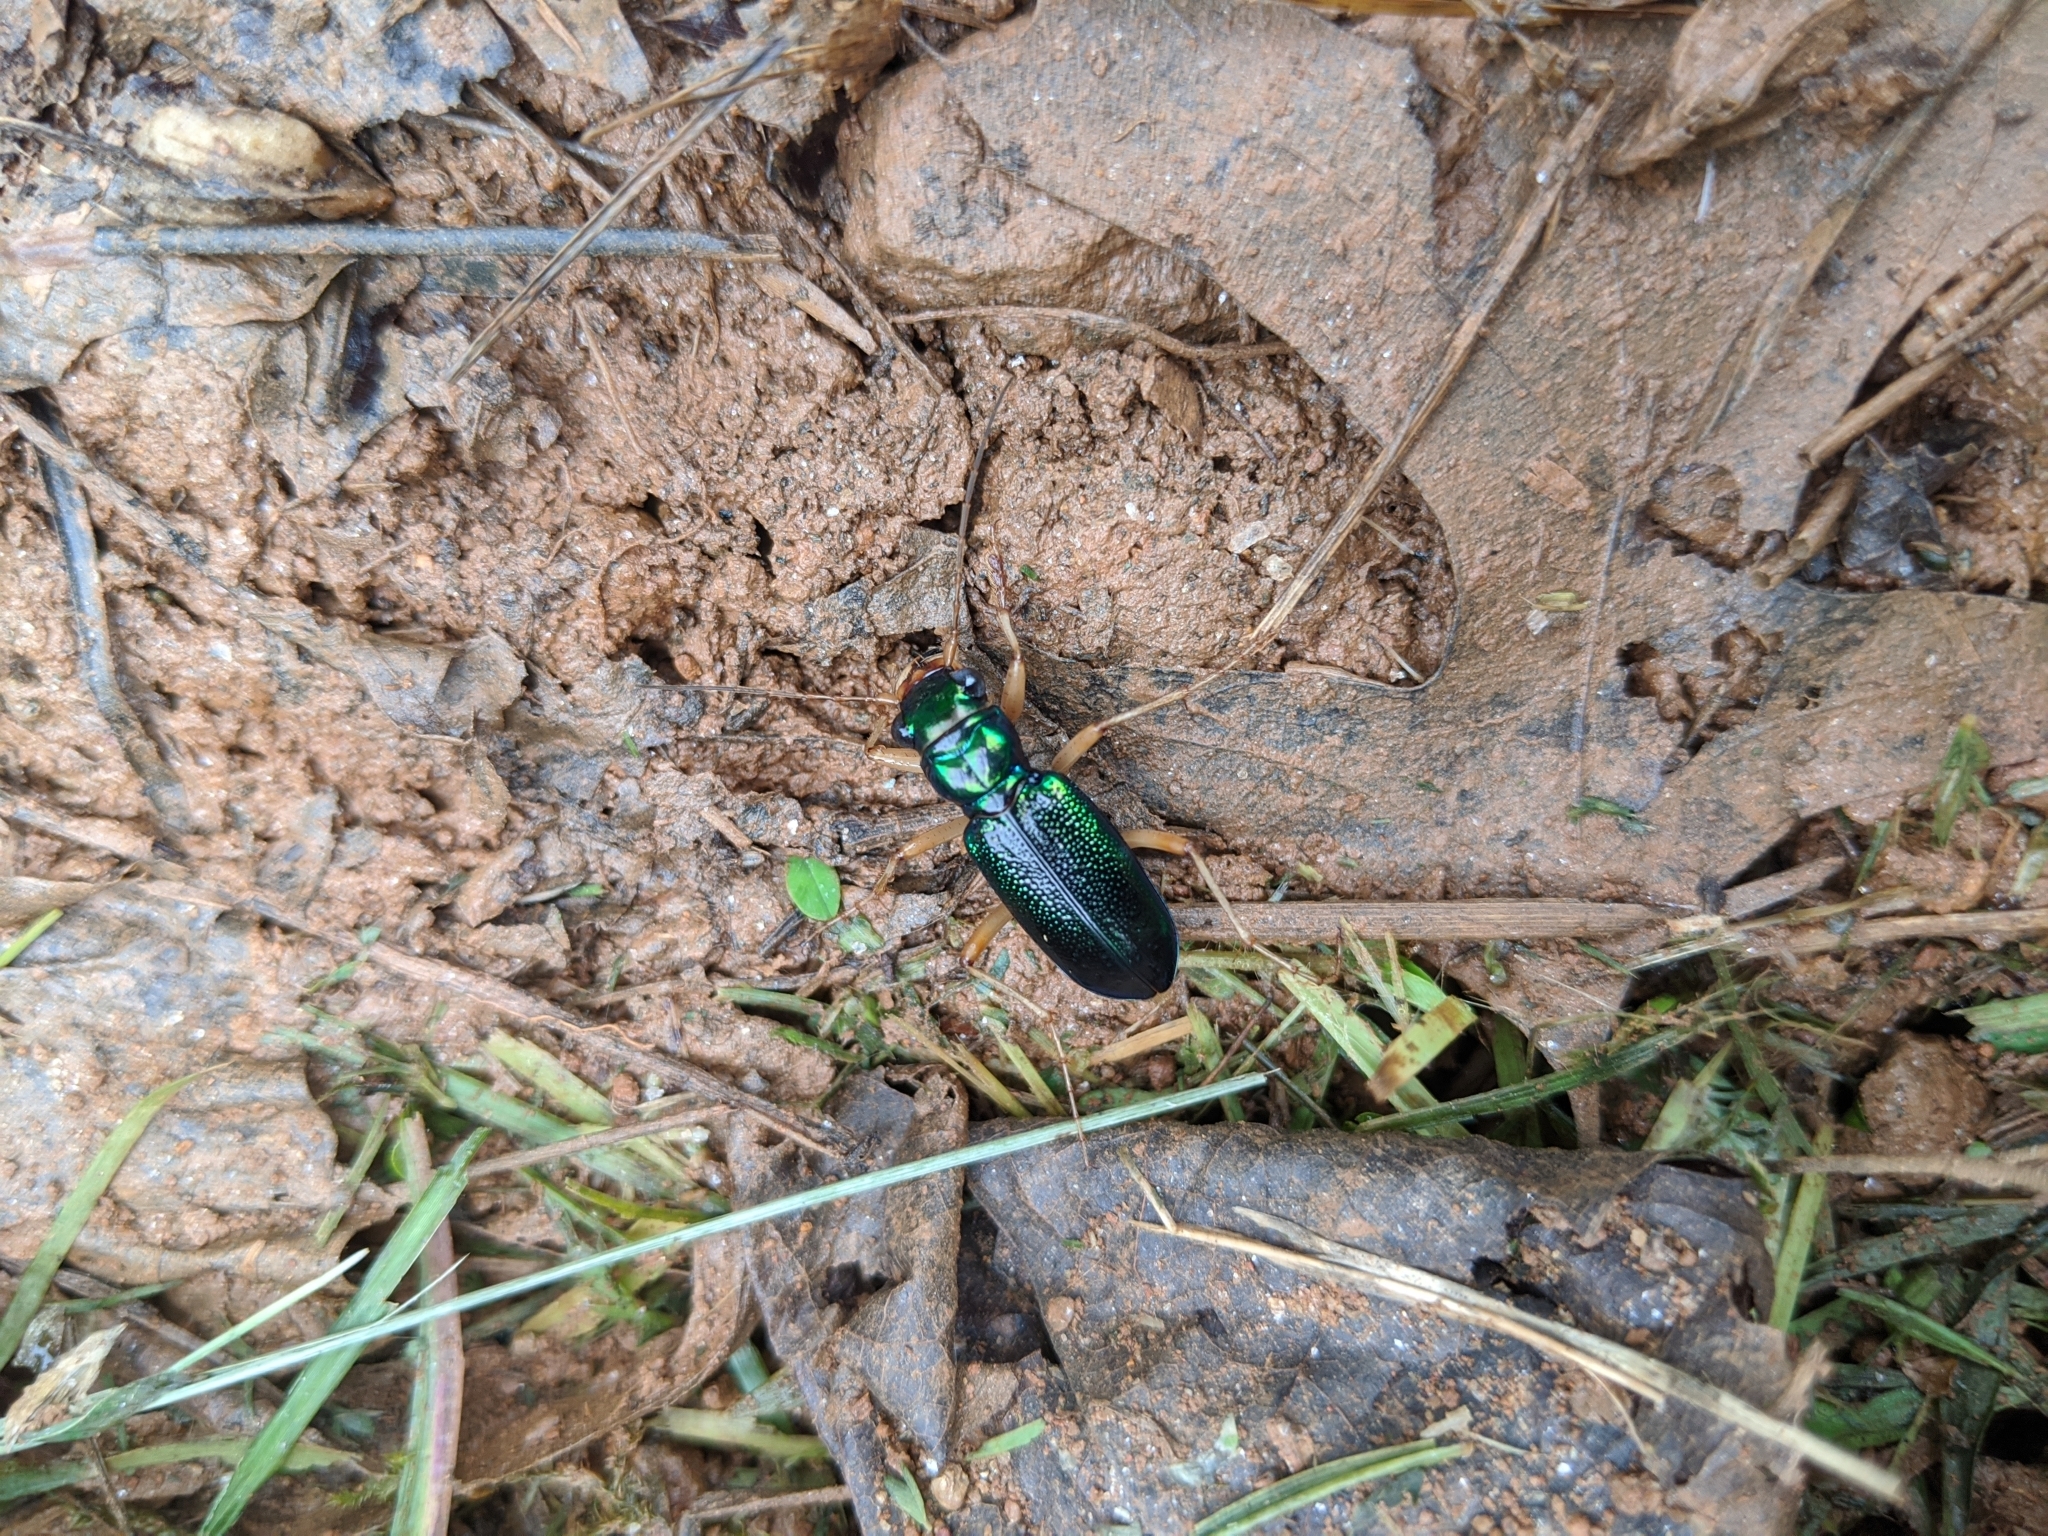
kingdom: Animalia
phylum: Arthropoda
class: Insecta
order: Coleoptera
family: Carabidae
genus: Tetracha
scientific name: Tetracha virginica
